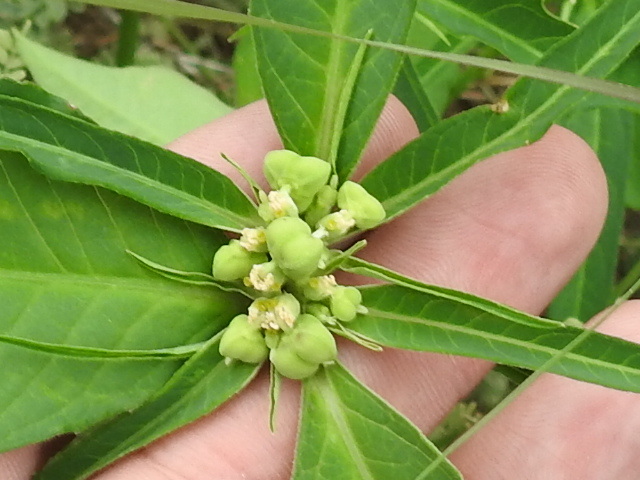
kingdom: Plantae
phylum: Tracheophyta
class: Magnoliopsida
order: Malpighiales
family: Euphorbiaceae
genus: Euphorbia
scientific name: Euphorbia heterophylla
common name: Mexican fireplant
